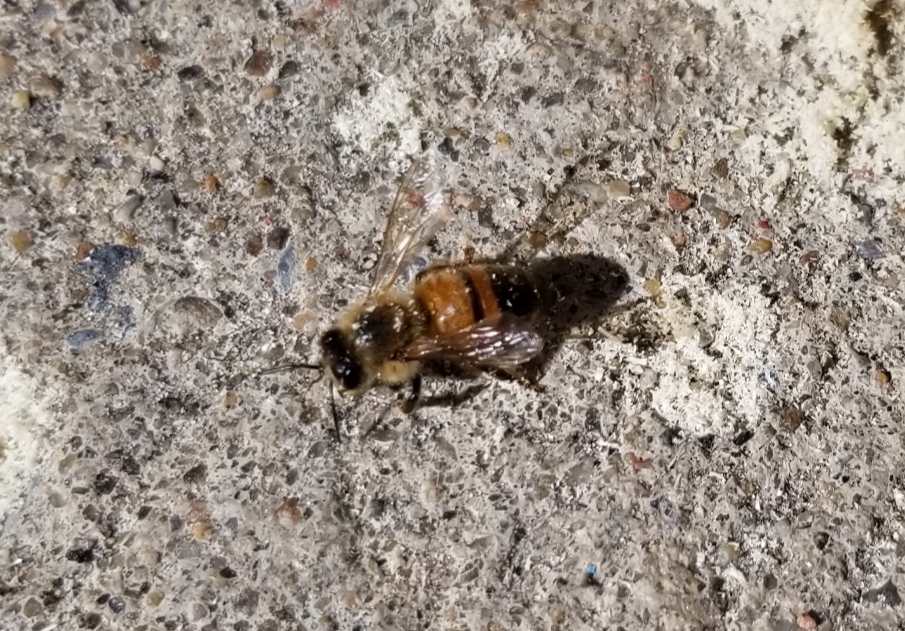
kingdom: Animalia
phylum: Arthropoda
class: Insecta
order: Hymenoptera
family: Apidae
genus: Apis
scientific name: Apis mellifera
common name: Honey bee
